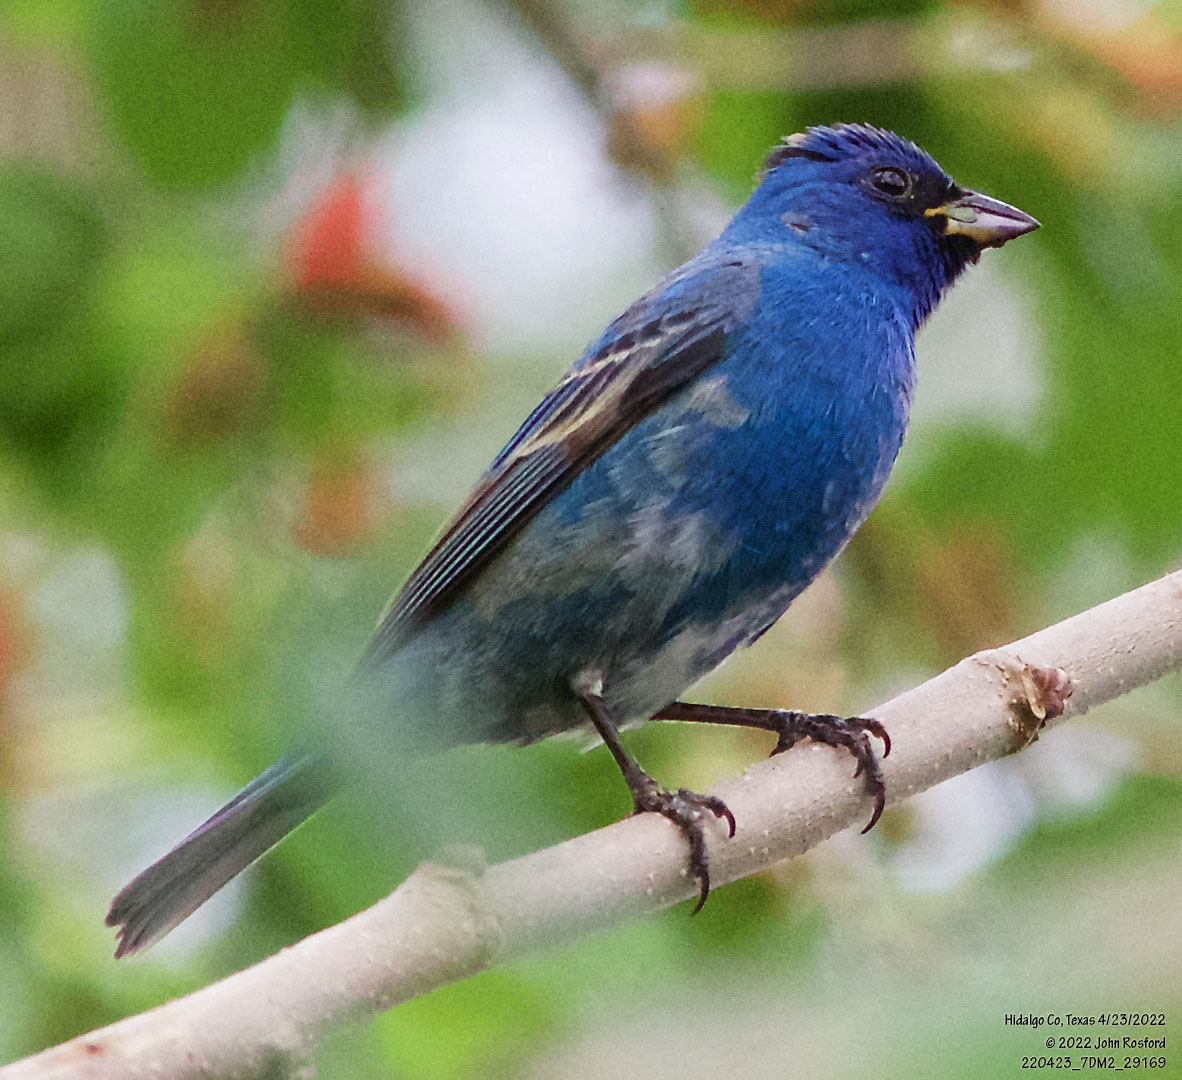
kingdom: Animalia
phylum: Chordata
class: Aves
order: Passeriformes
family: Cardinalidae
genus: Passerina
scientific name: Passerina cyanea
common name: Indigo bunting
